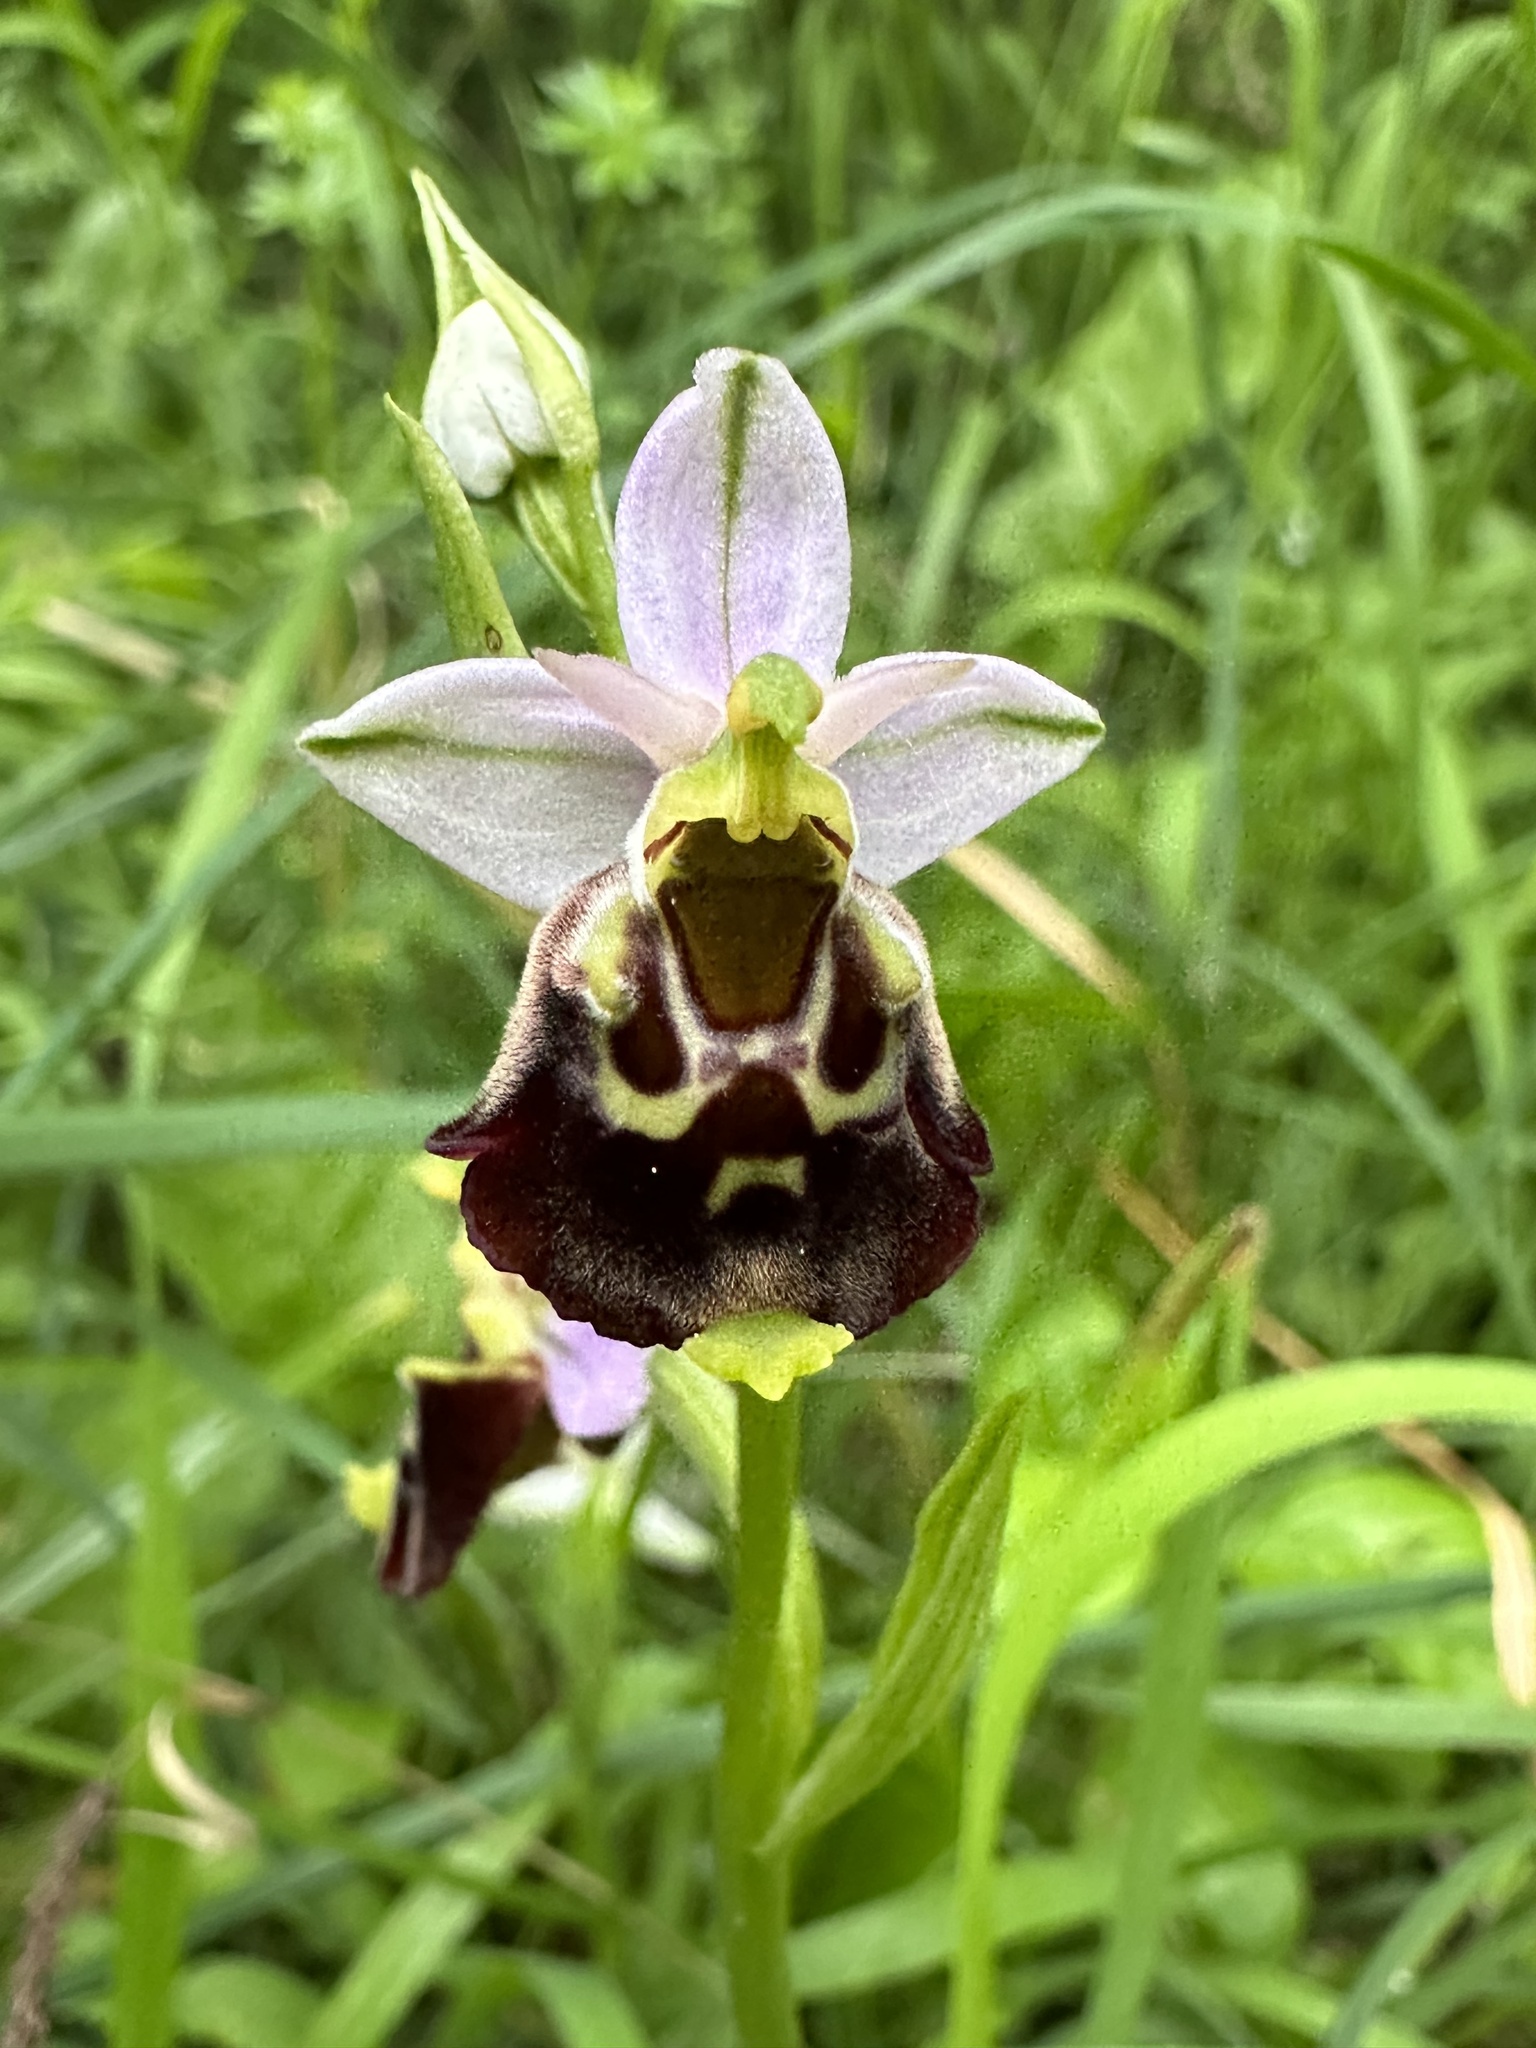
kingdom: Plantae
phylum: Tracheophyta
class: Liliopsida
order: Asparagales
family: Orchidaceae
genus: Ophrys
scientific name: Ophrys holosericea
